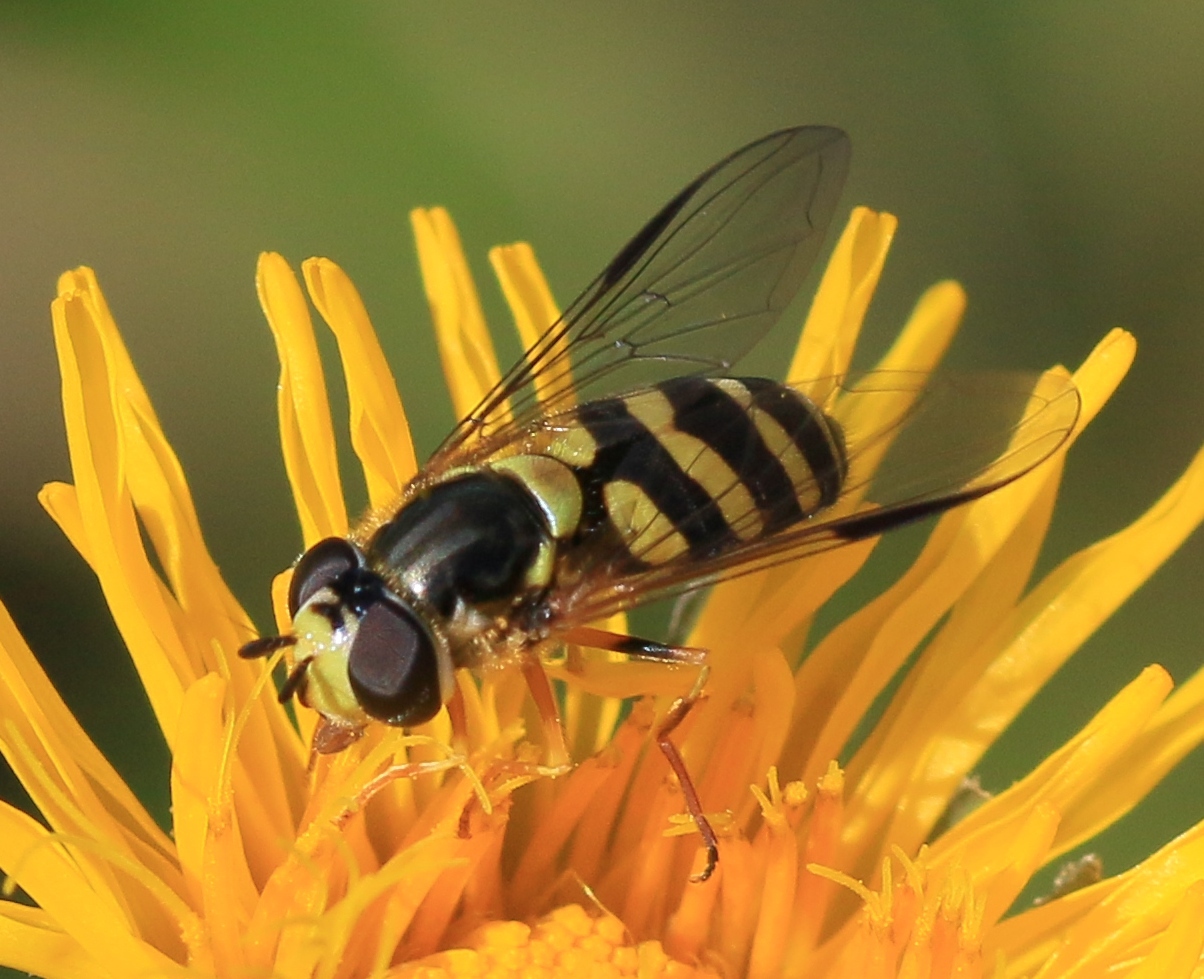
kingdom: Animalia
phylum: Arthropoda
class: Insecta
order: Diptera
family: Syrphidae
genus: Dasysyrphus
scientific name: Dasysyrphus albostriatus
